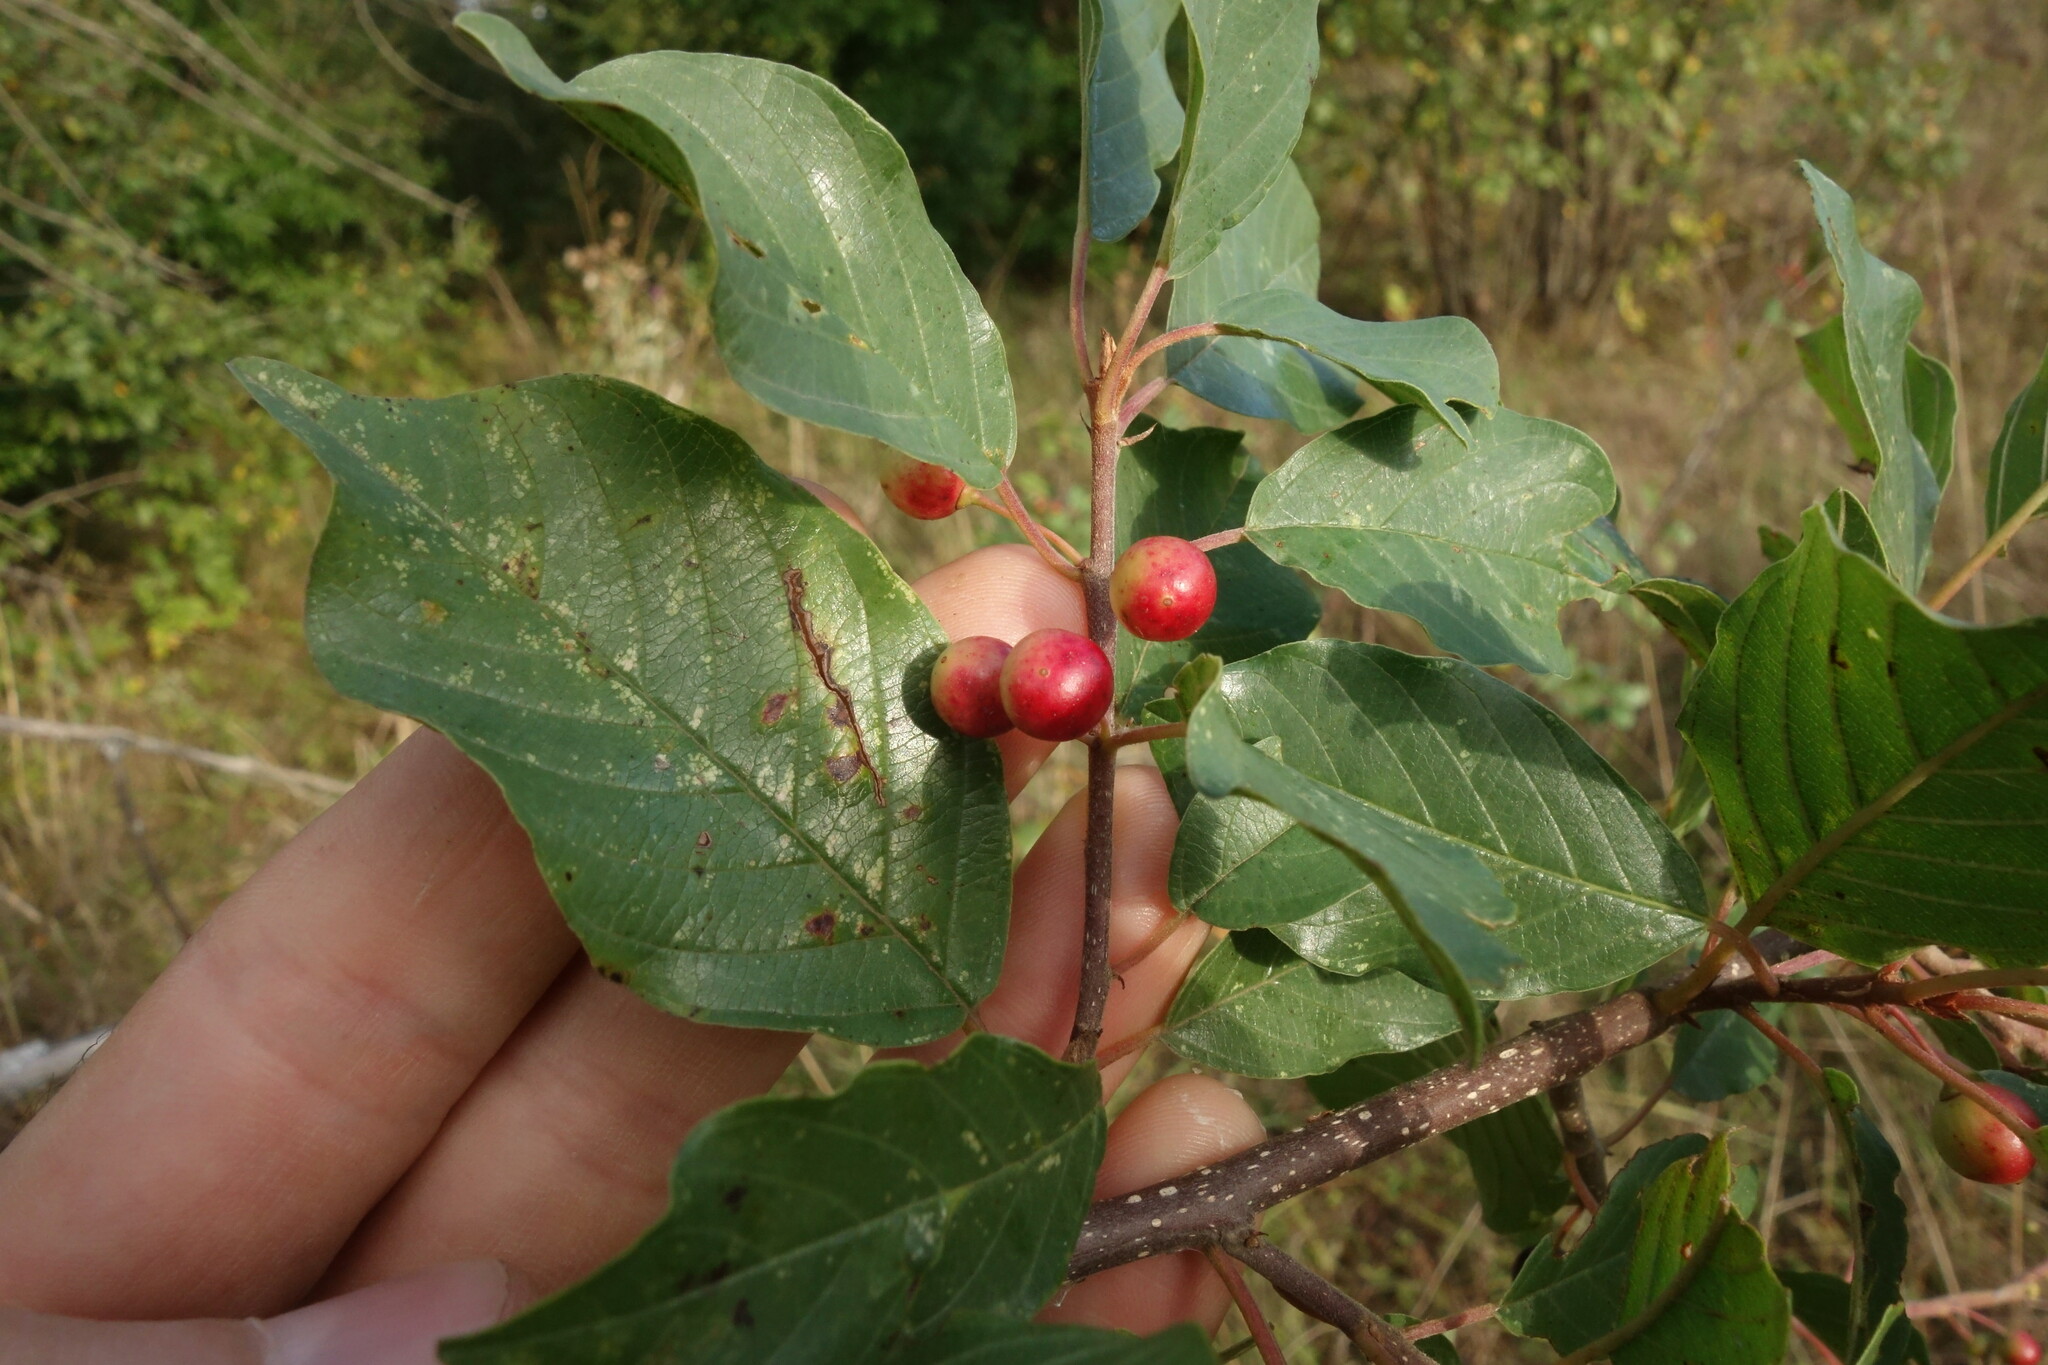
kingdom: Plantae
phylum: Tracheophyta
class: Magnoliopsida
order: Rosales
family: Rhamnaceae
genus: Frangula
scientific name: Frangula alnus
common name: Alder buckthorn
